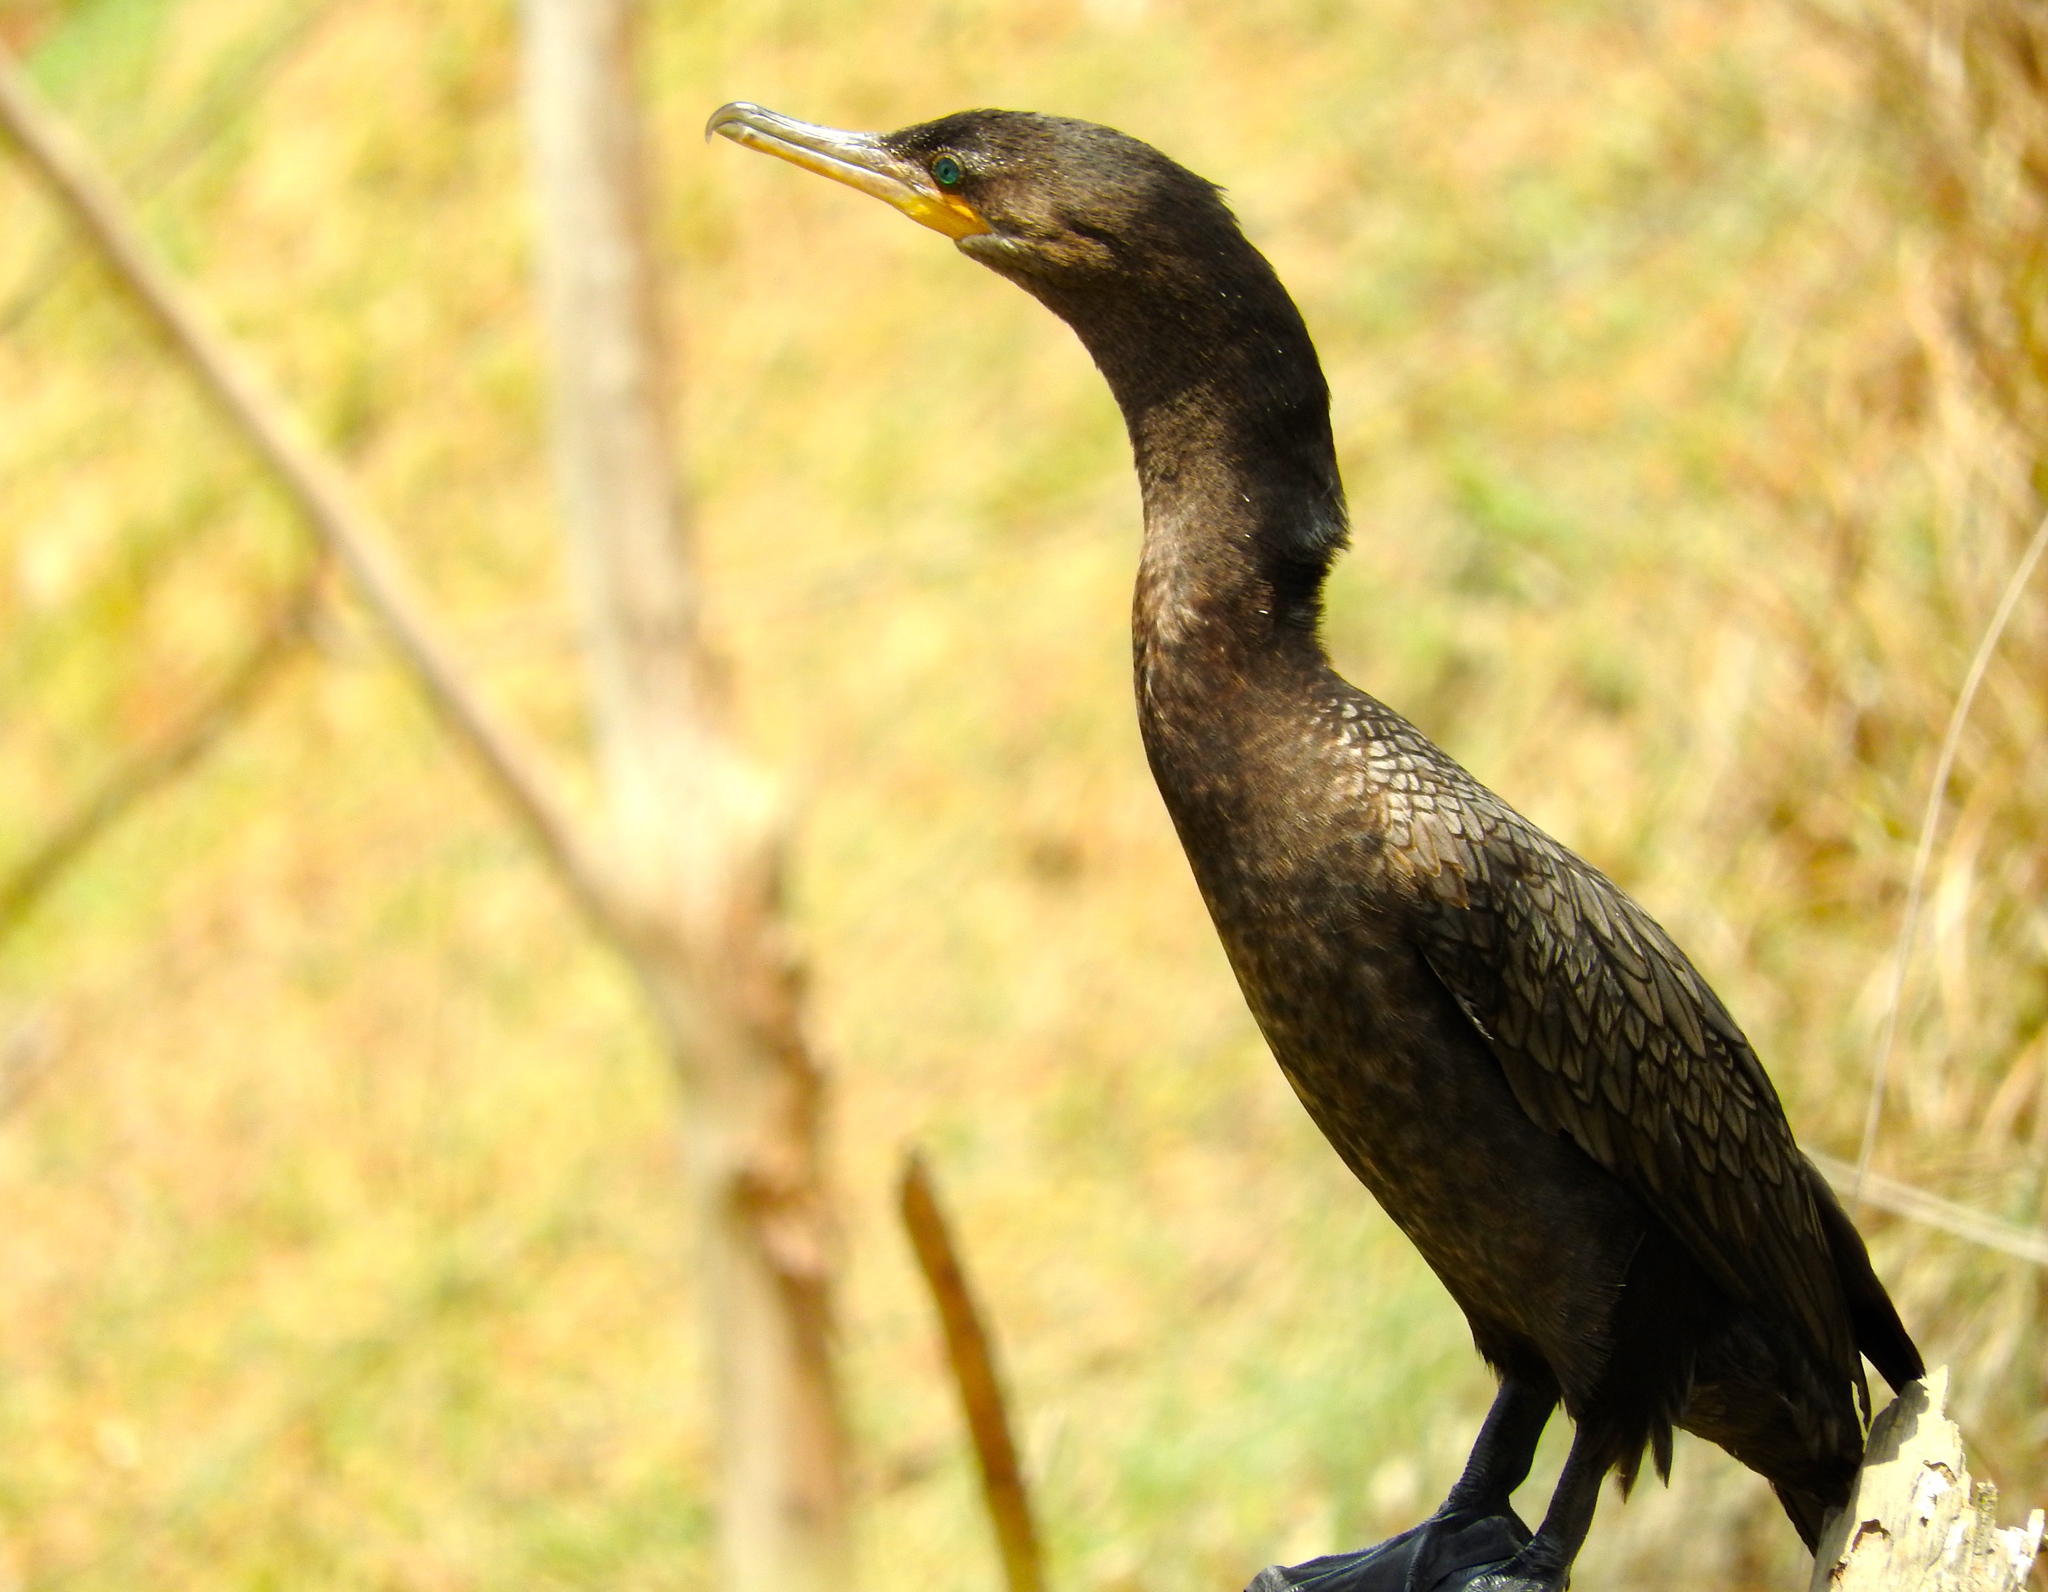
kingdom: Animalia
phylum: Chordata
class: Aves
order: Suliformes
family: Phalacrocoracidae
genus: Phalacrocorax
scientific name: Phalacrocorax brasilianus
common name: Neotropic cormorant
